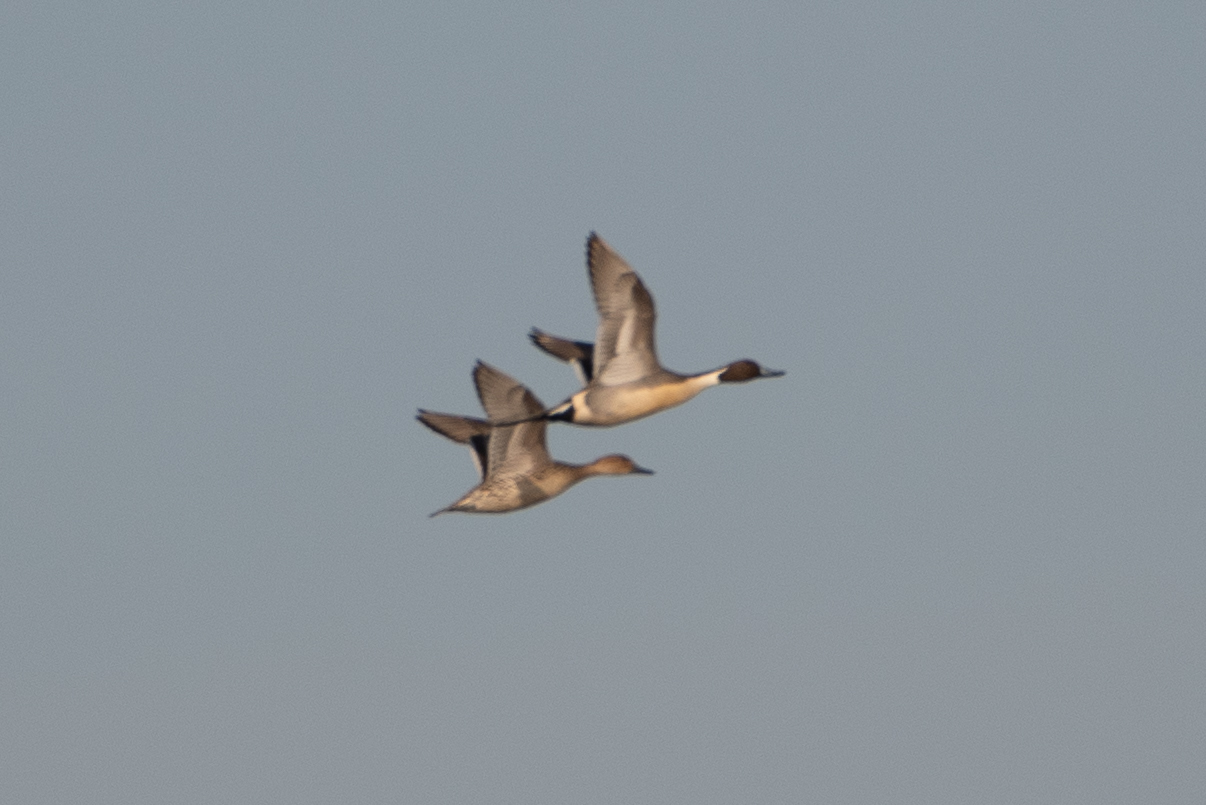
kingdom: Animalia
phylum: Chordata
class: Aves
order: Anseriformes
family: Anatidae
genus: Anas
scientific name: Anas acuta
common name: Northern pintail
